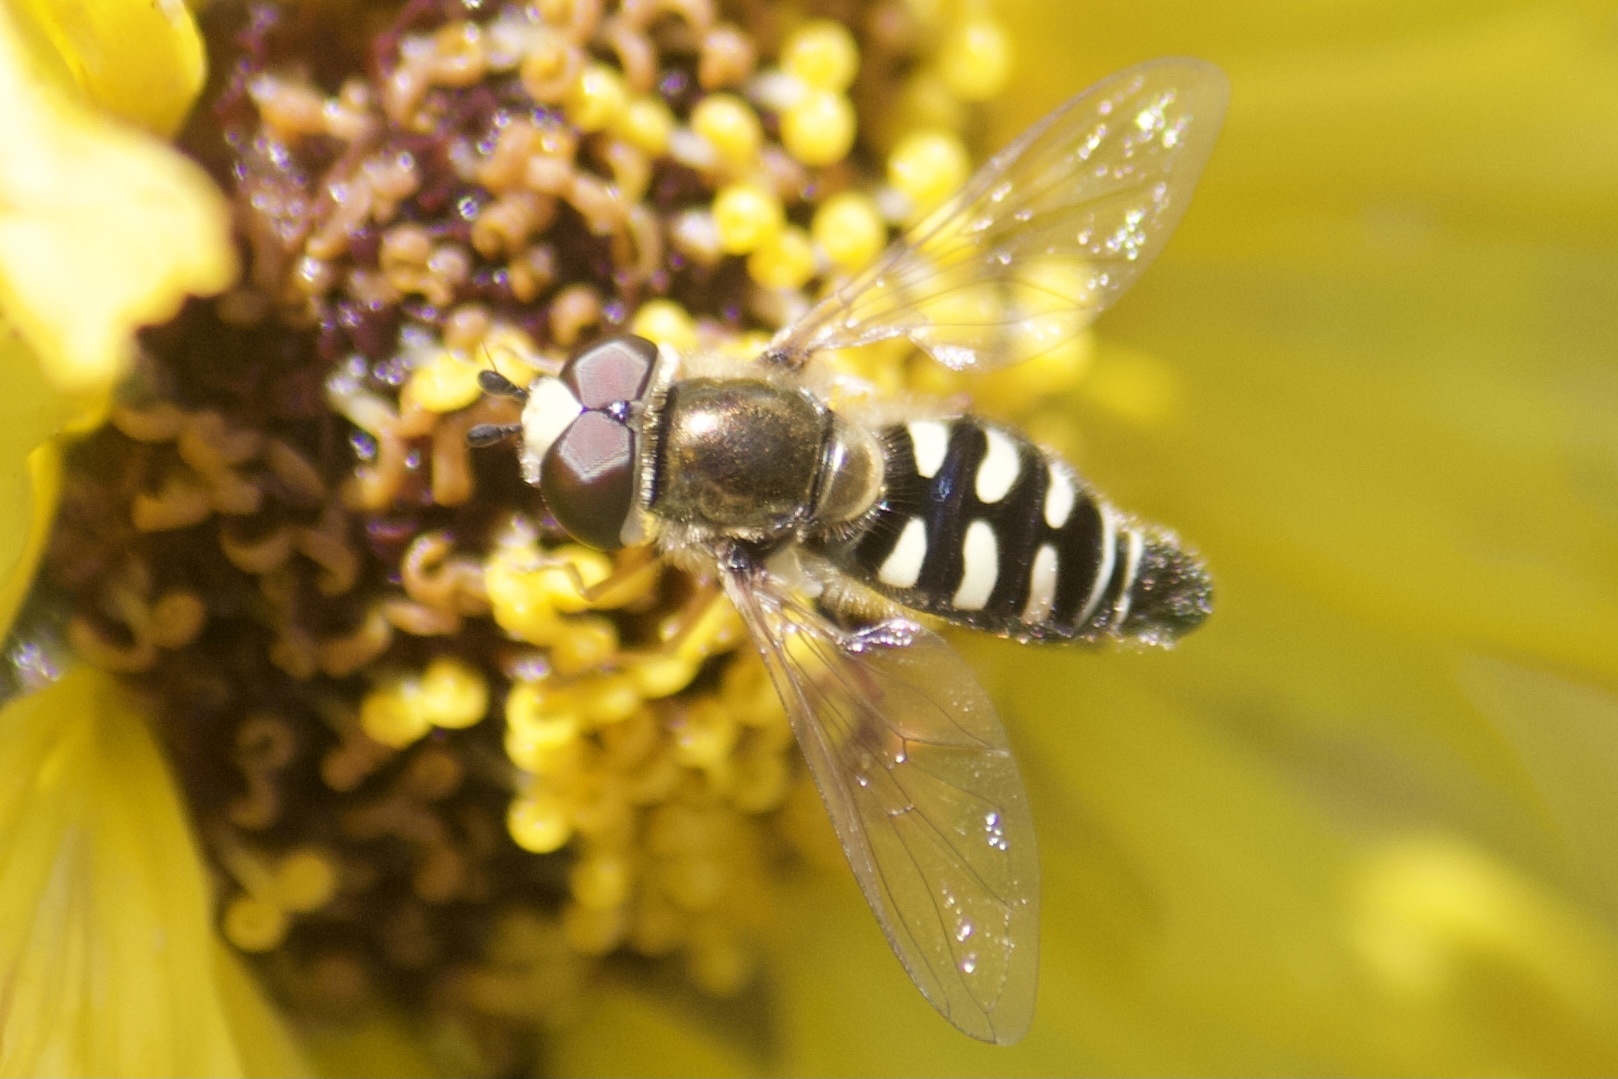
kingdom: Animalia
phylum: Arthropoda
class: Insecta
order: Diptera
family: Syrphidae
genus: Eupeodes
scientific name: Eupeodes volucris
